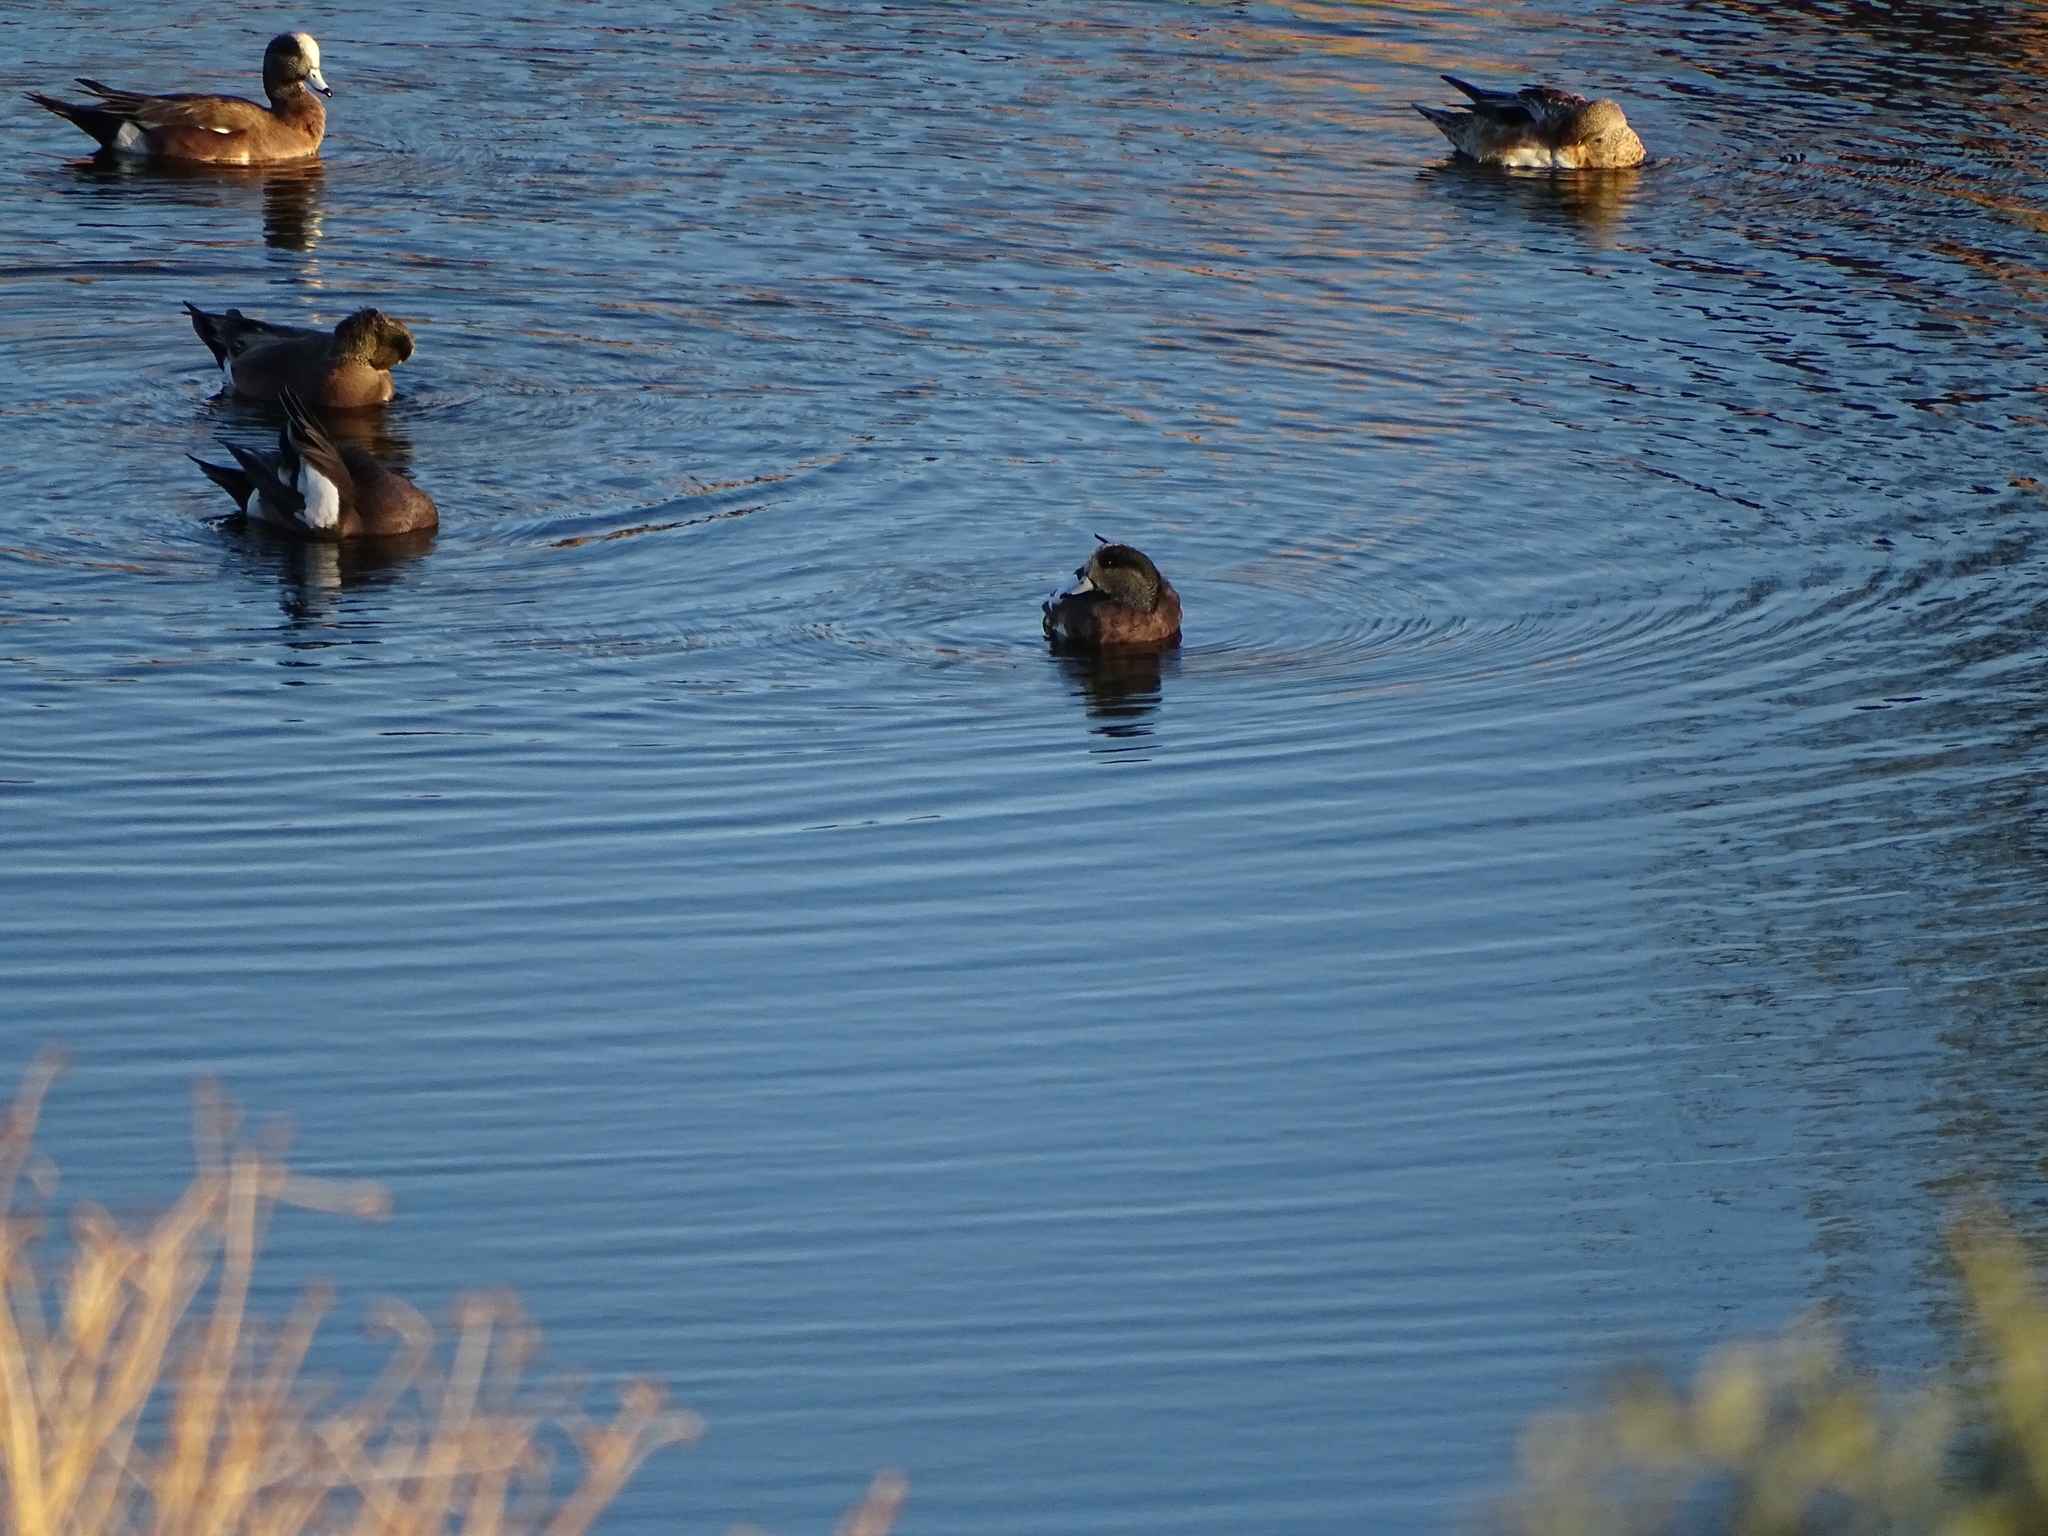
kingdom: Animalia
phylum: Chordata
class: Aves
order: Anseriformes
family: Anatidae
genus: Mareca
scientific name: Mareca americana
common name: American wigeon
